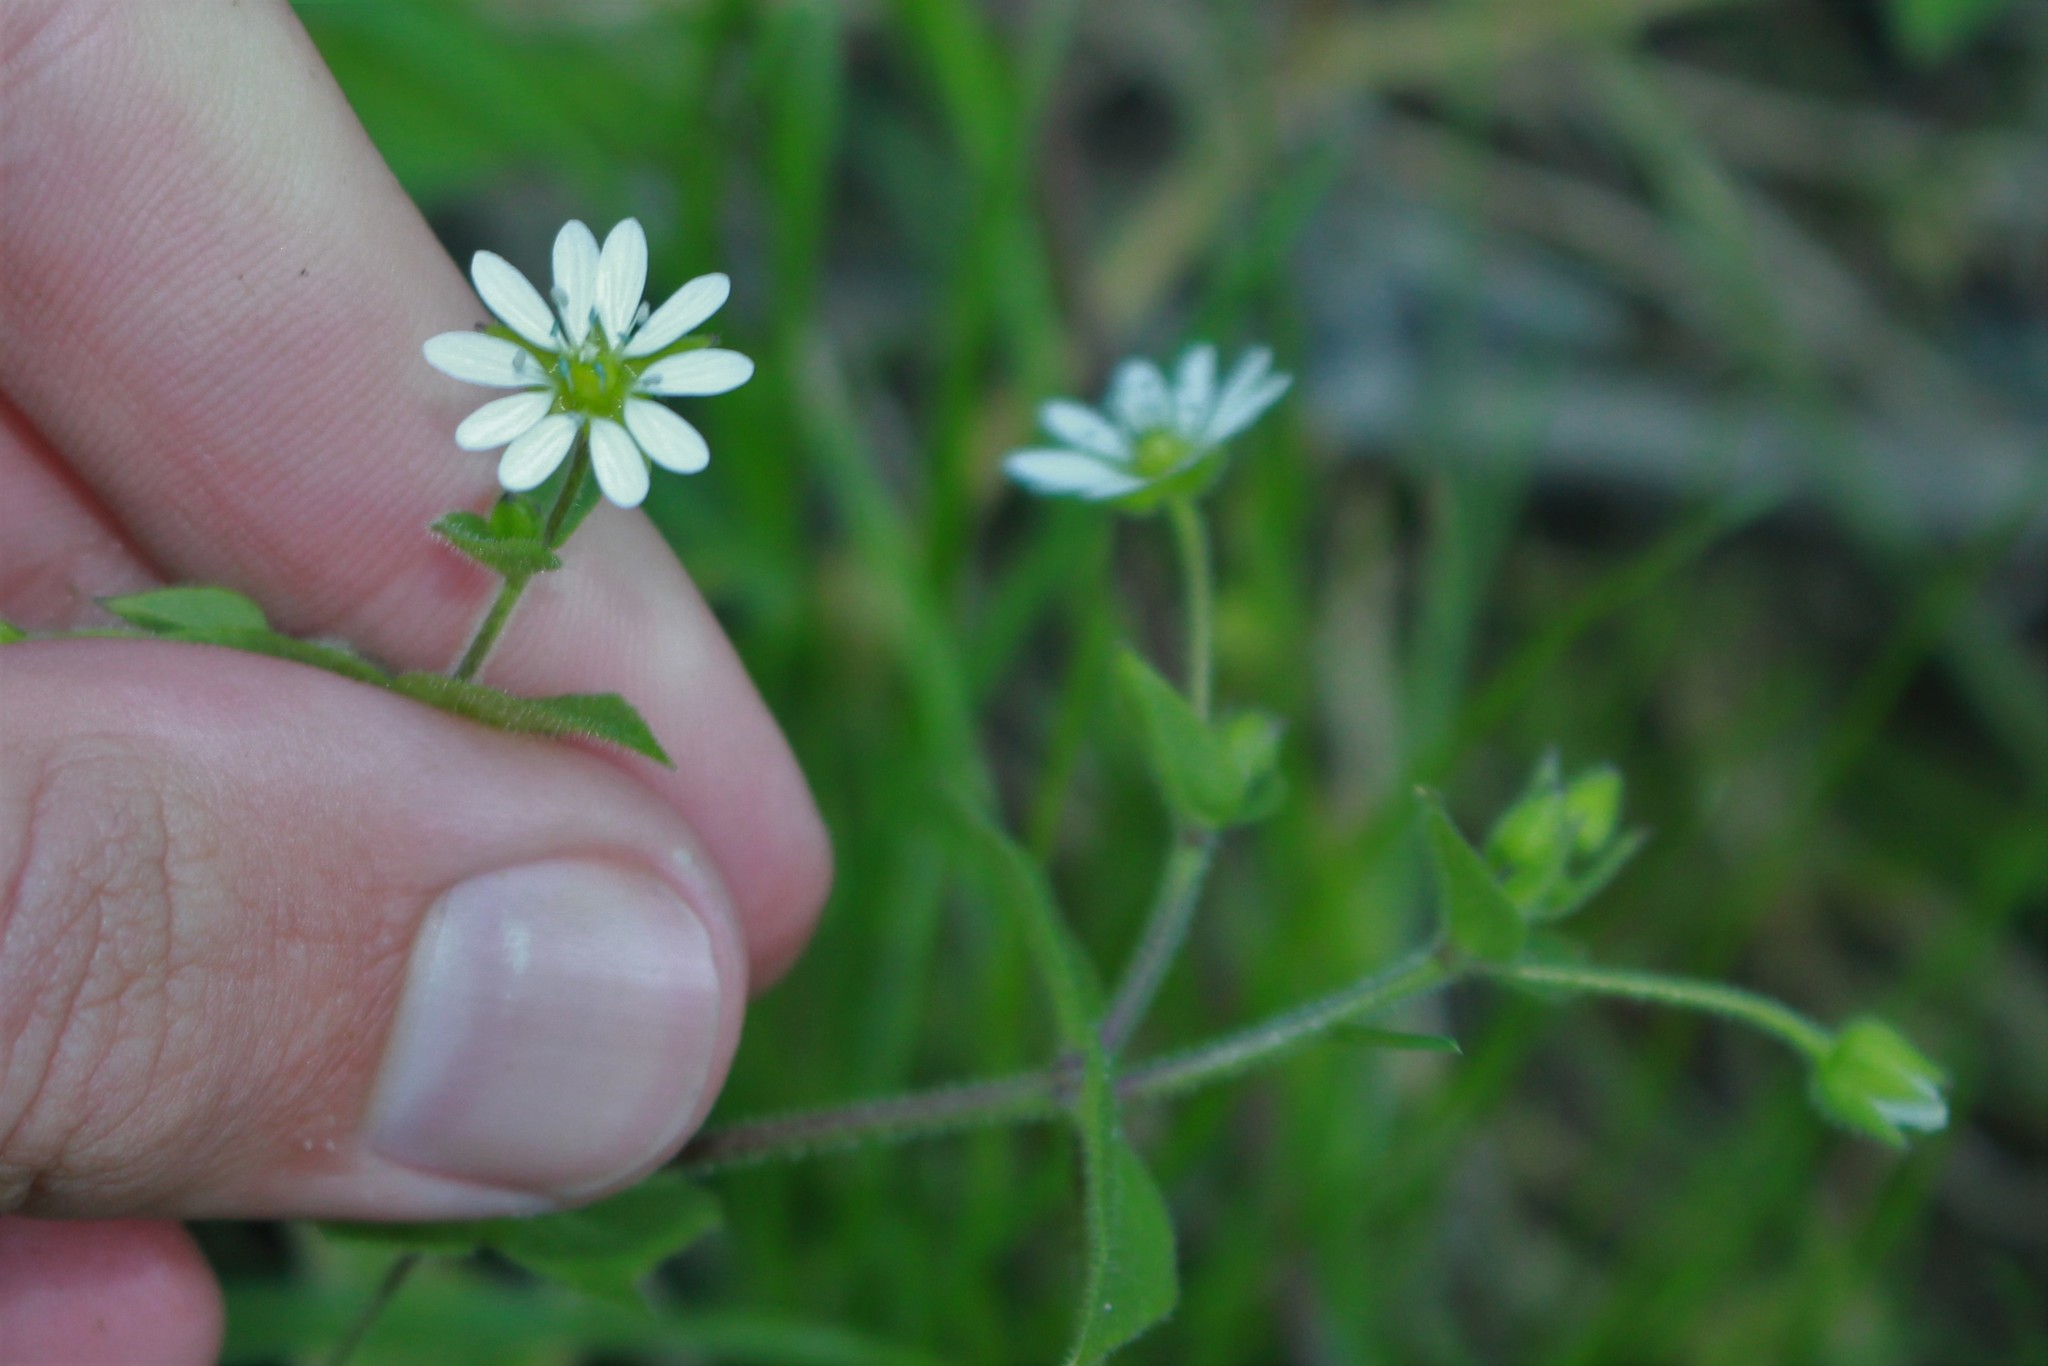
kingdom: Plantae
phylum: Tracheophyta
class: Magnoliopsida
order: Caryophyllales
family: Caryophyllaceae
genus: Stellaria
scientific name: Stellaria aquatica
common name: Water chickweed
